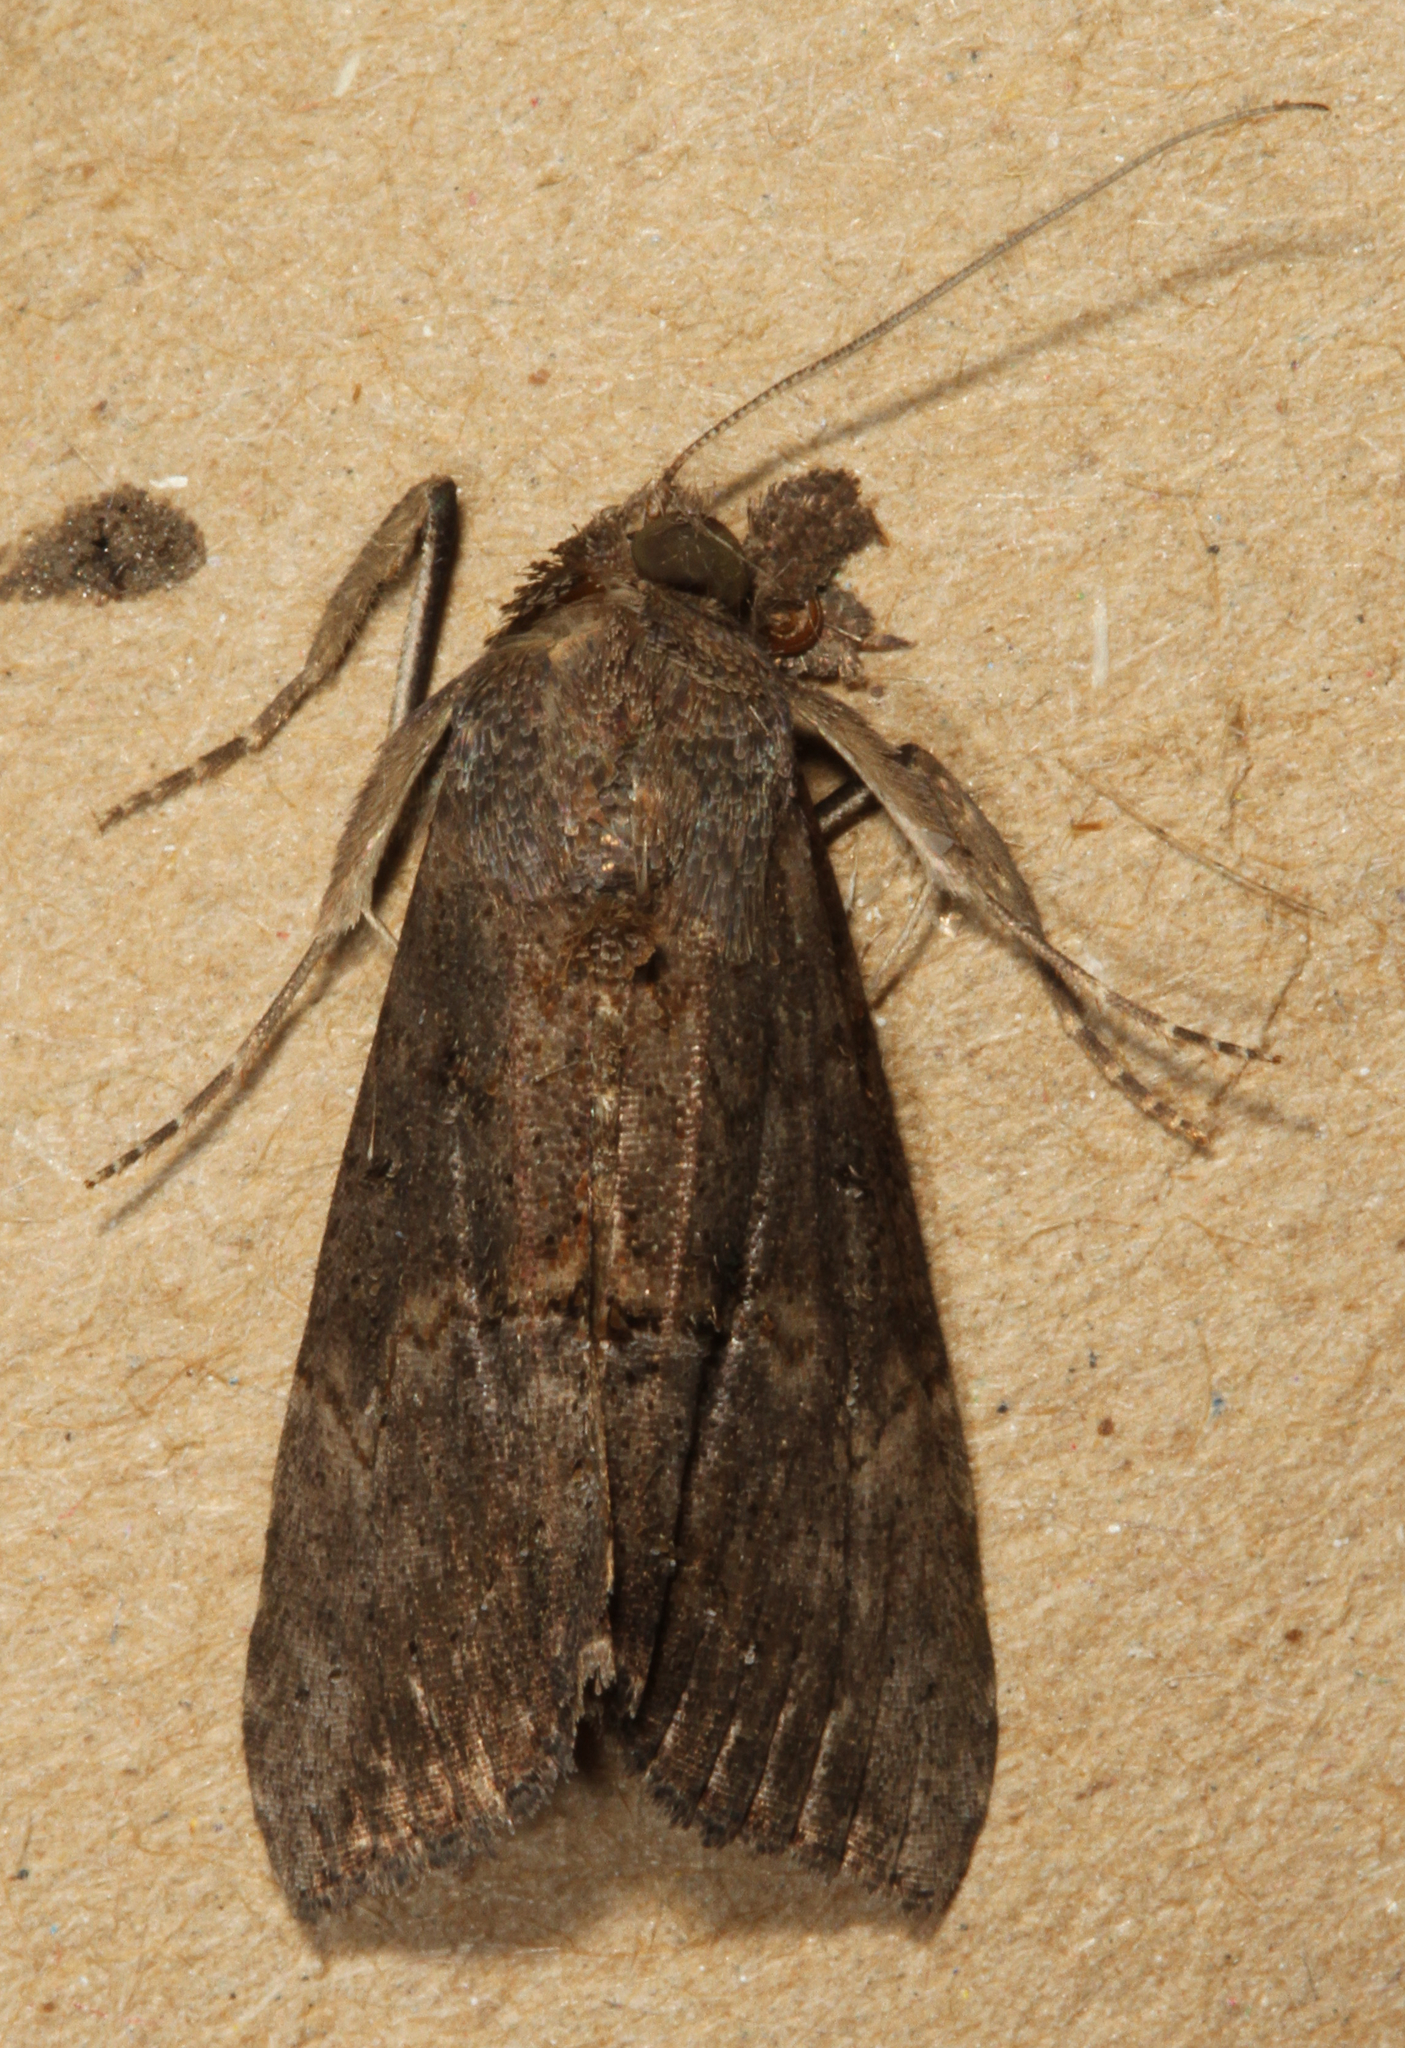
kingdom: Animalia
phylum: Arthropoda
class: Insecta
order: Lepidoptera
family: Erebidae
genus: Hypena
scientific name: Hypena scabra
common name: Green cloverworm
